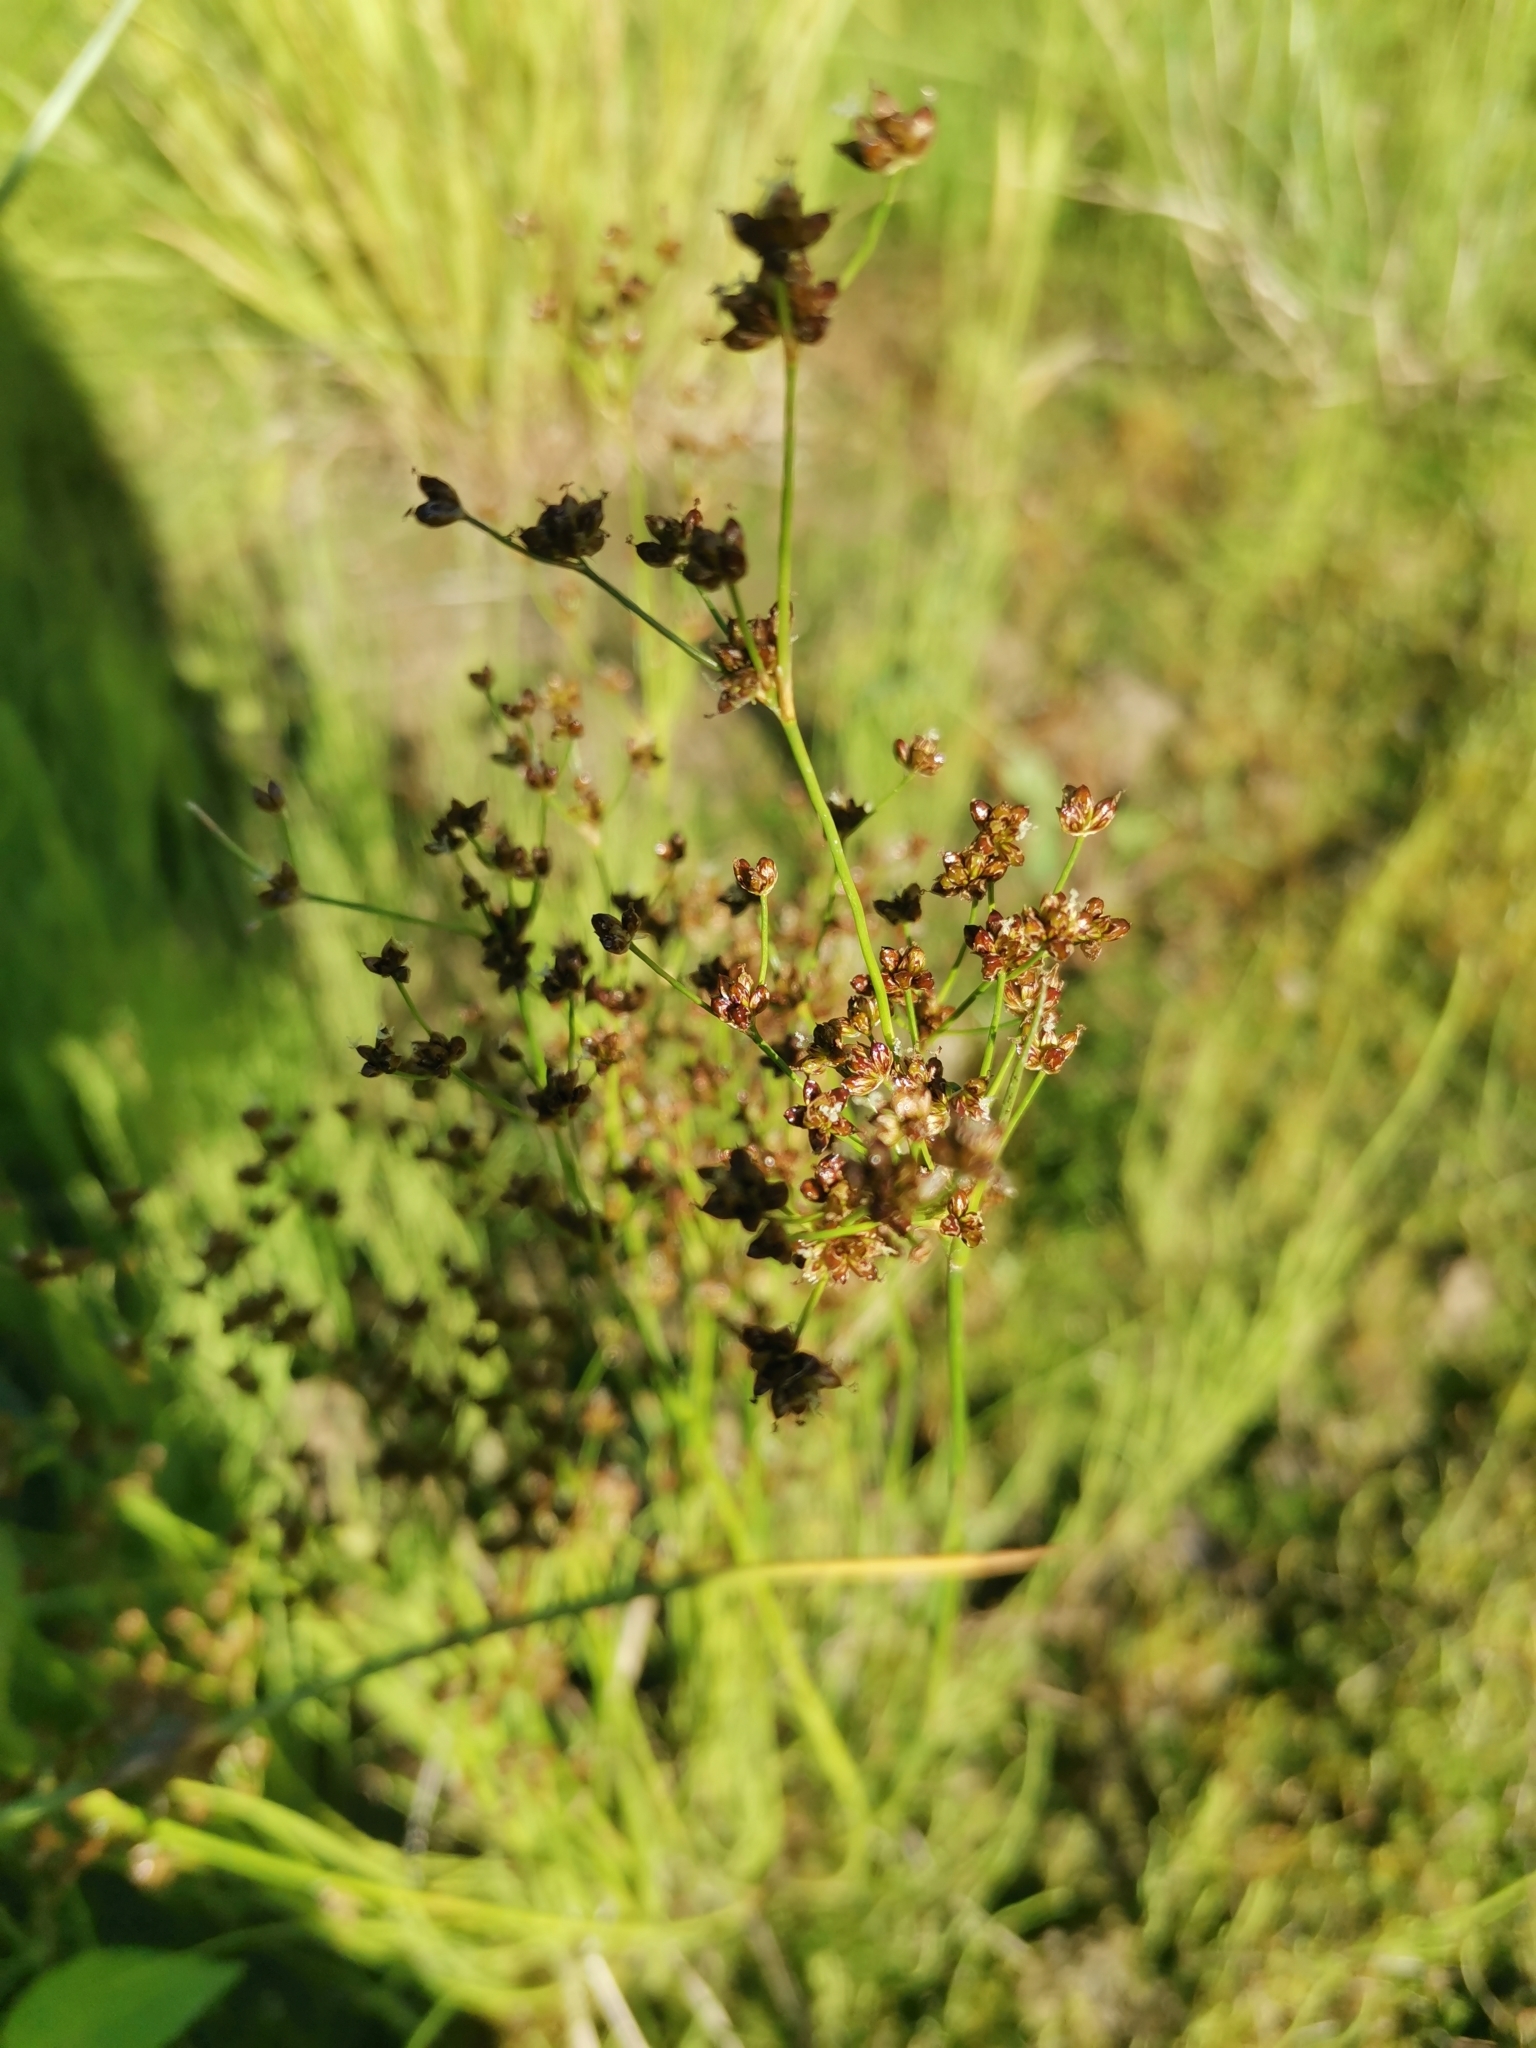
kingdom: Plantae
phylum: Tracheophyta
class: Liliopsida
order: Poales
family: Juncaceae
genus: Juncus
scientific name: Juncus articulatus
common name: Jointed rush
